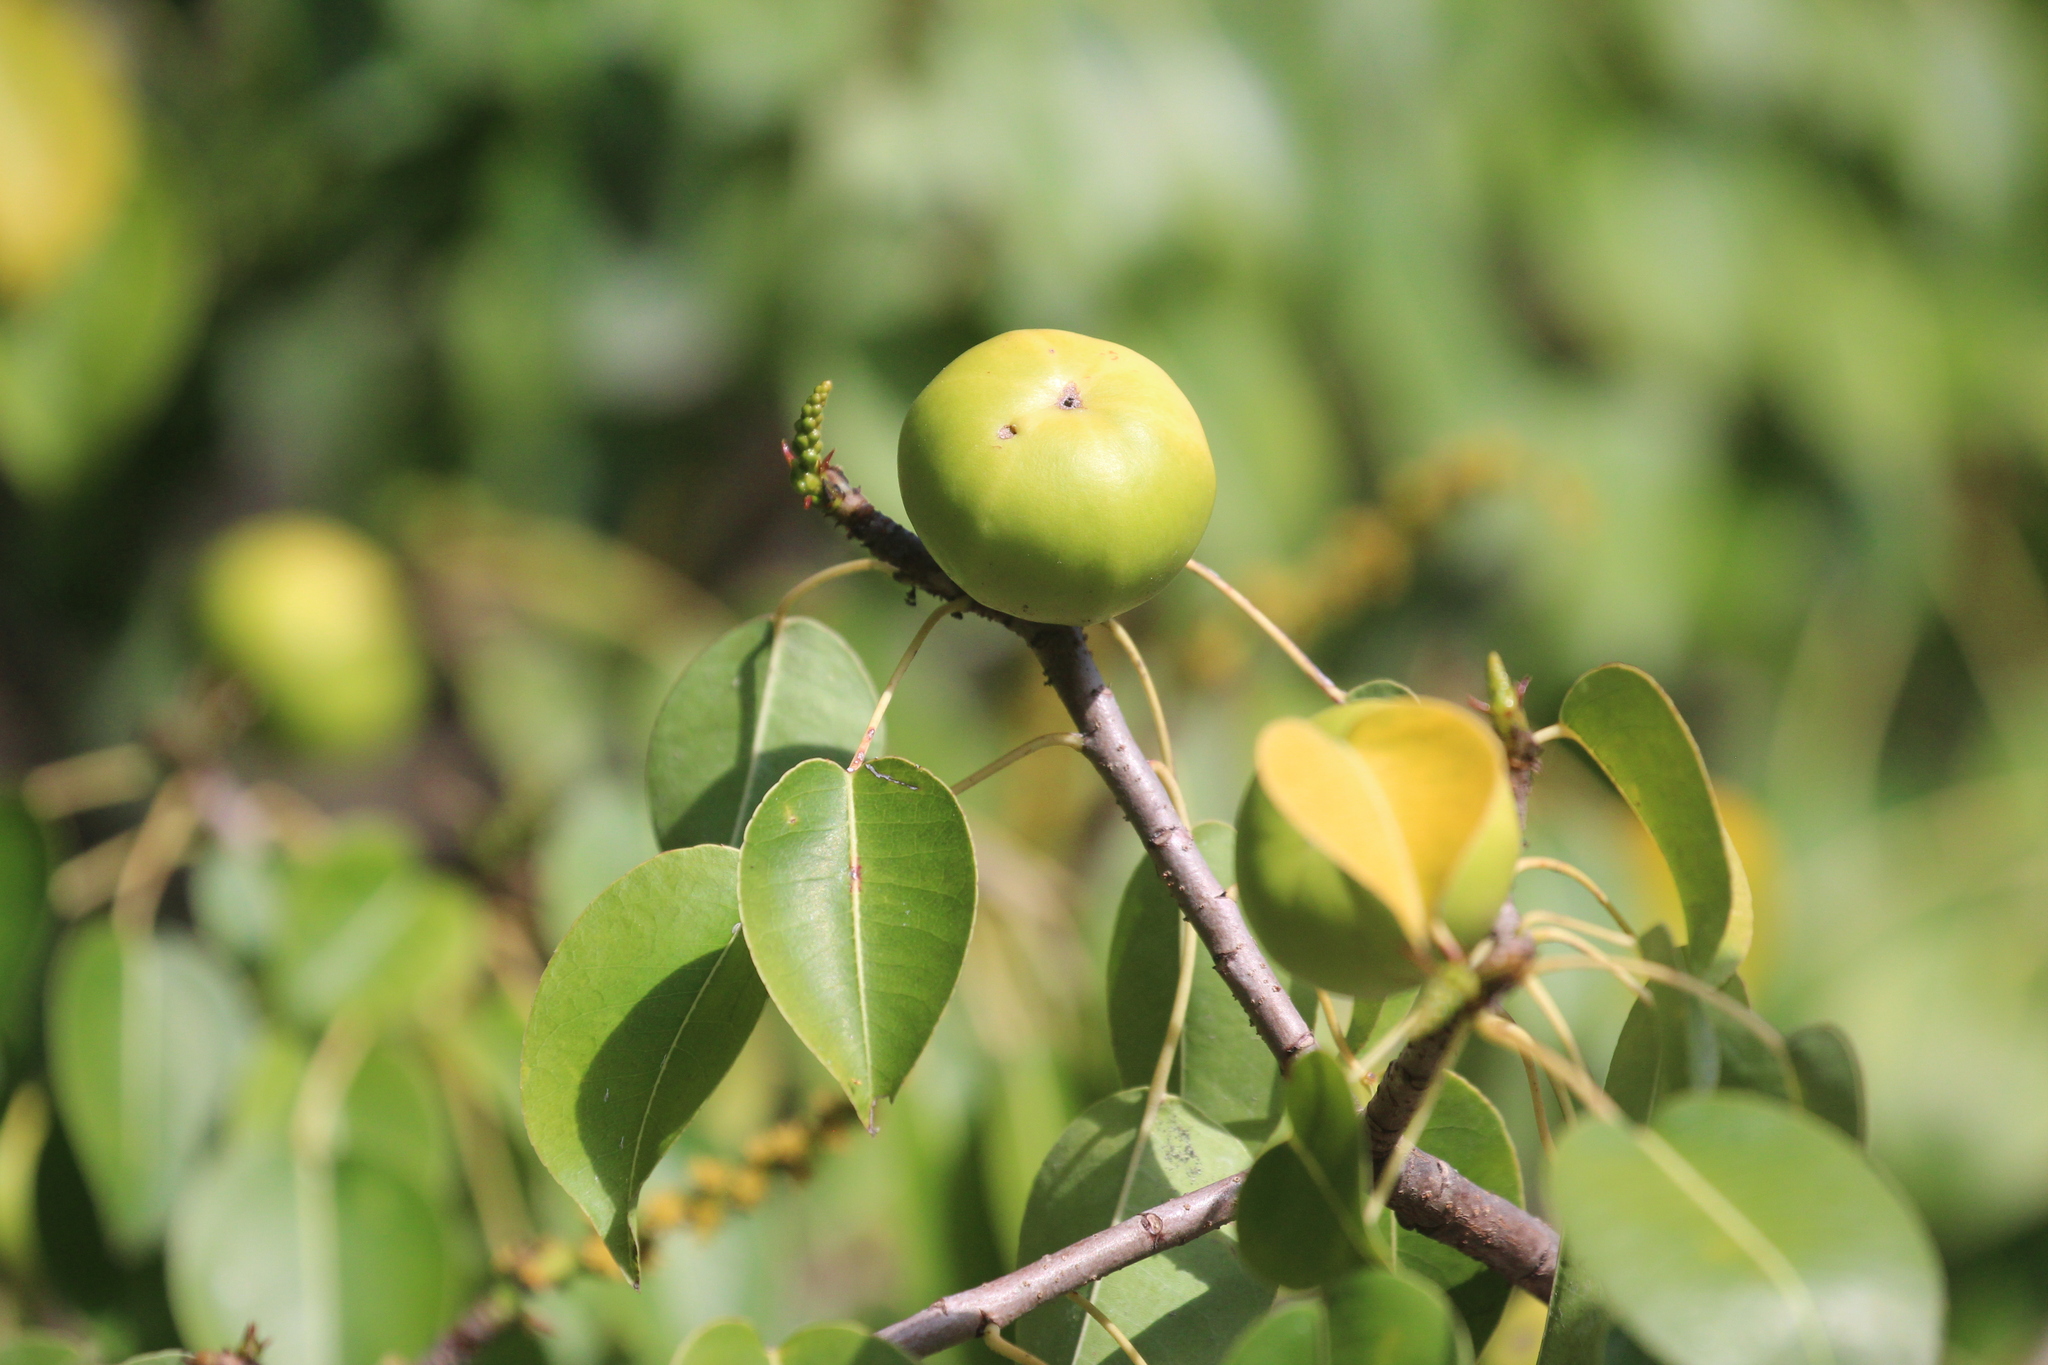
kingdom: Plantae
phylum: Tracheophyta
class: Magnoliopsida
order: Malpighiales
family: Euphorbiaceae
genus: Hippomane
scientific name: Hippomane mancinella
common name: Manchineel
